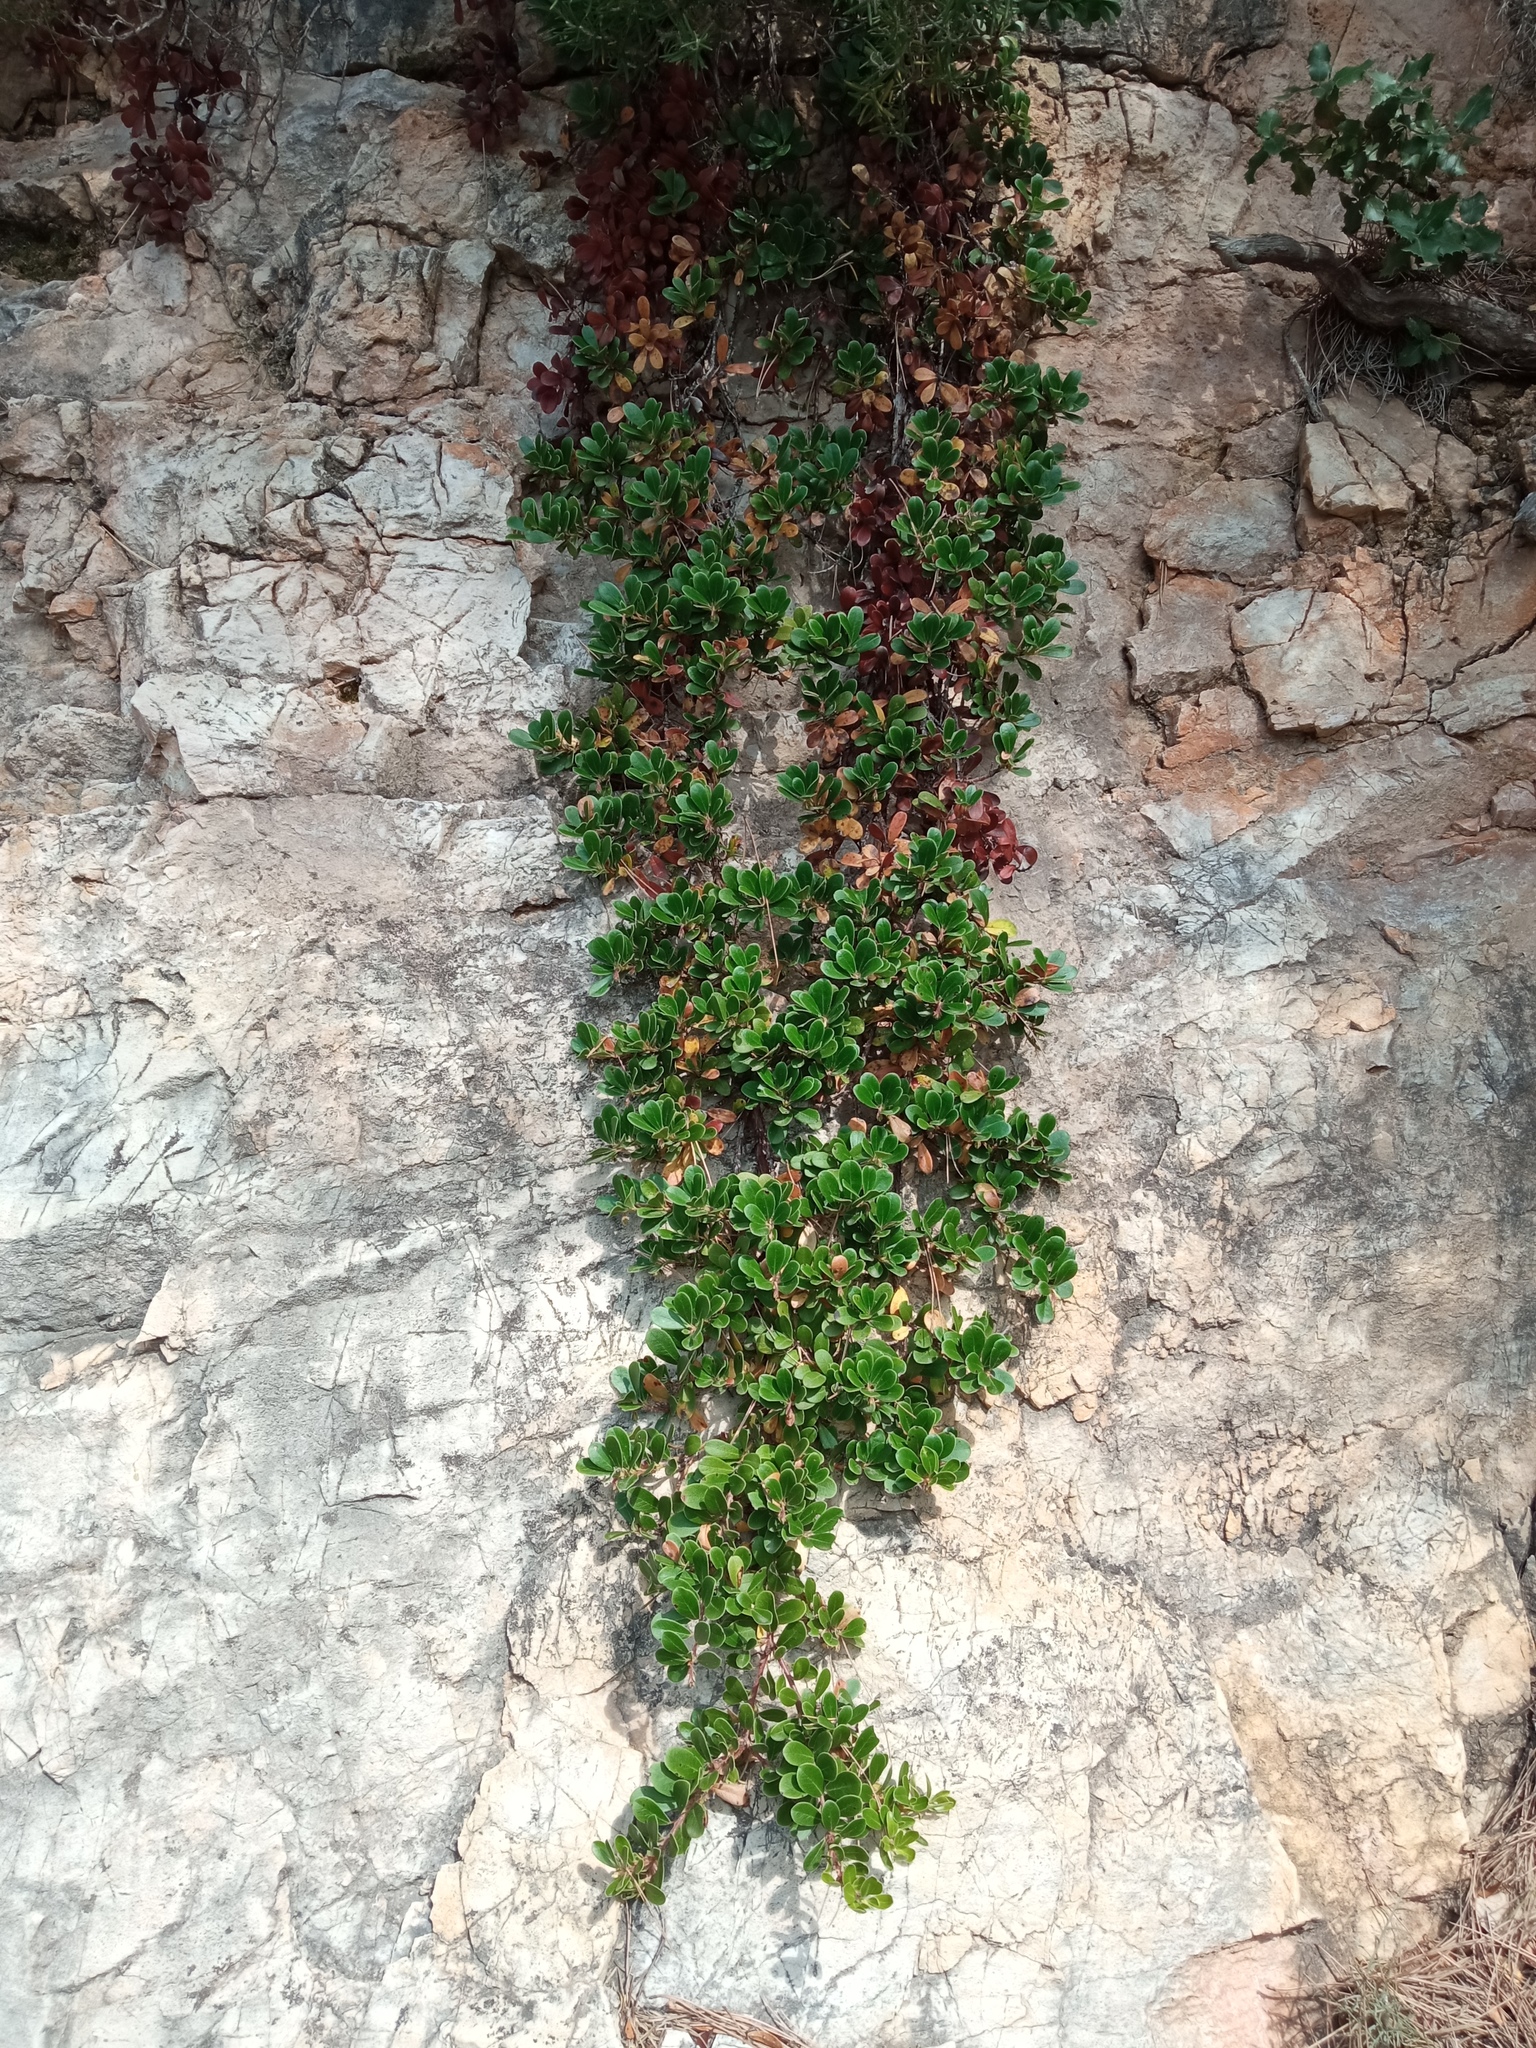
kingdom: Plantae
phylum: Tracheophyta
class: Magnoliopsida
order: Ericales
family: Ericaceae
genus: Arctostaphylos
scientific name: Arctostaphylos uva-ursi
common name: Bearberry
